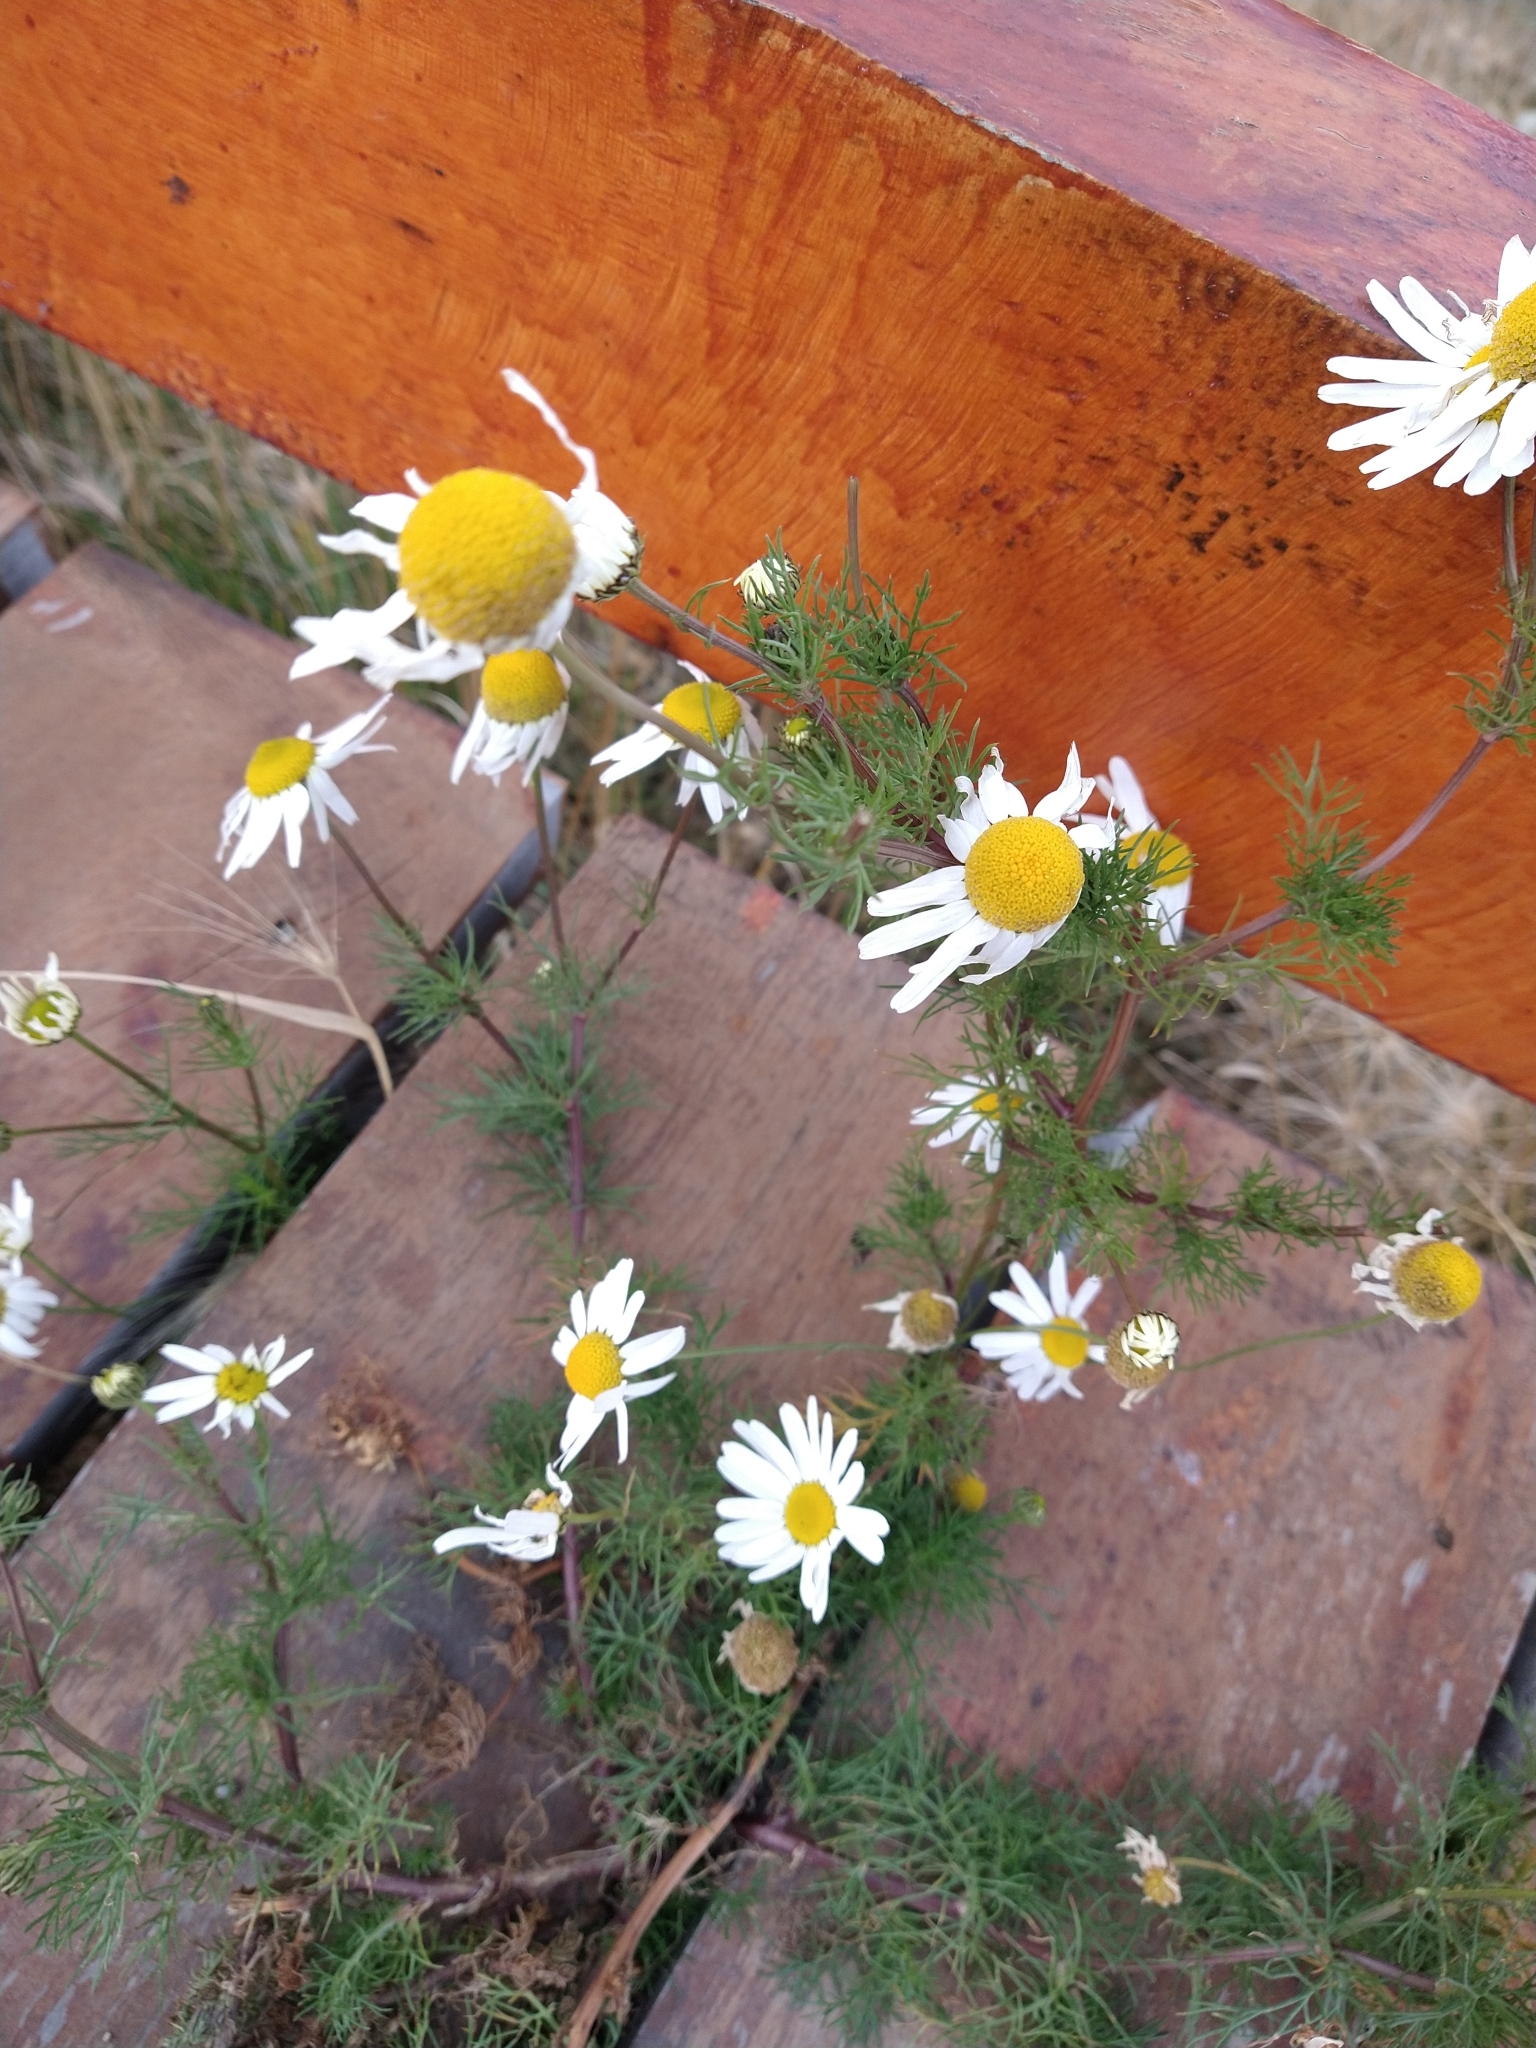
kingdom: Plantae
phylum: Tracheophyta
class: Magnoliopsida
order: Asterales
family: Asteraceae
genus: Tripleurospermum
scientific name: Tripleurospermum inodorum
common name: Scentless mayweed
